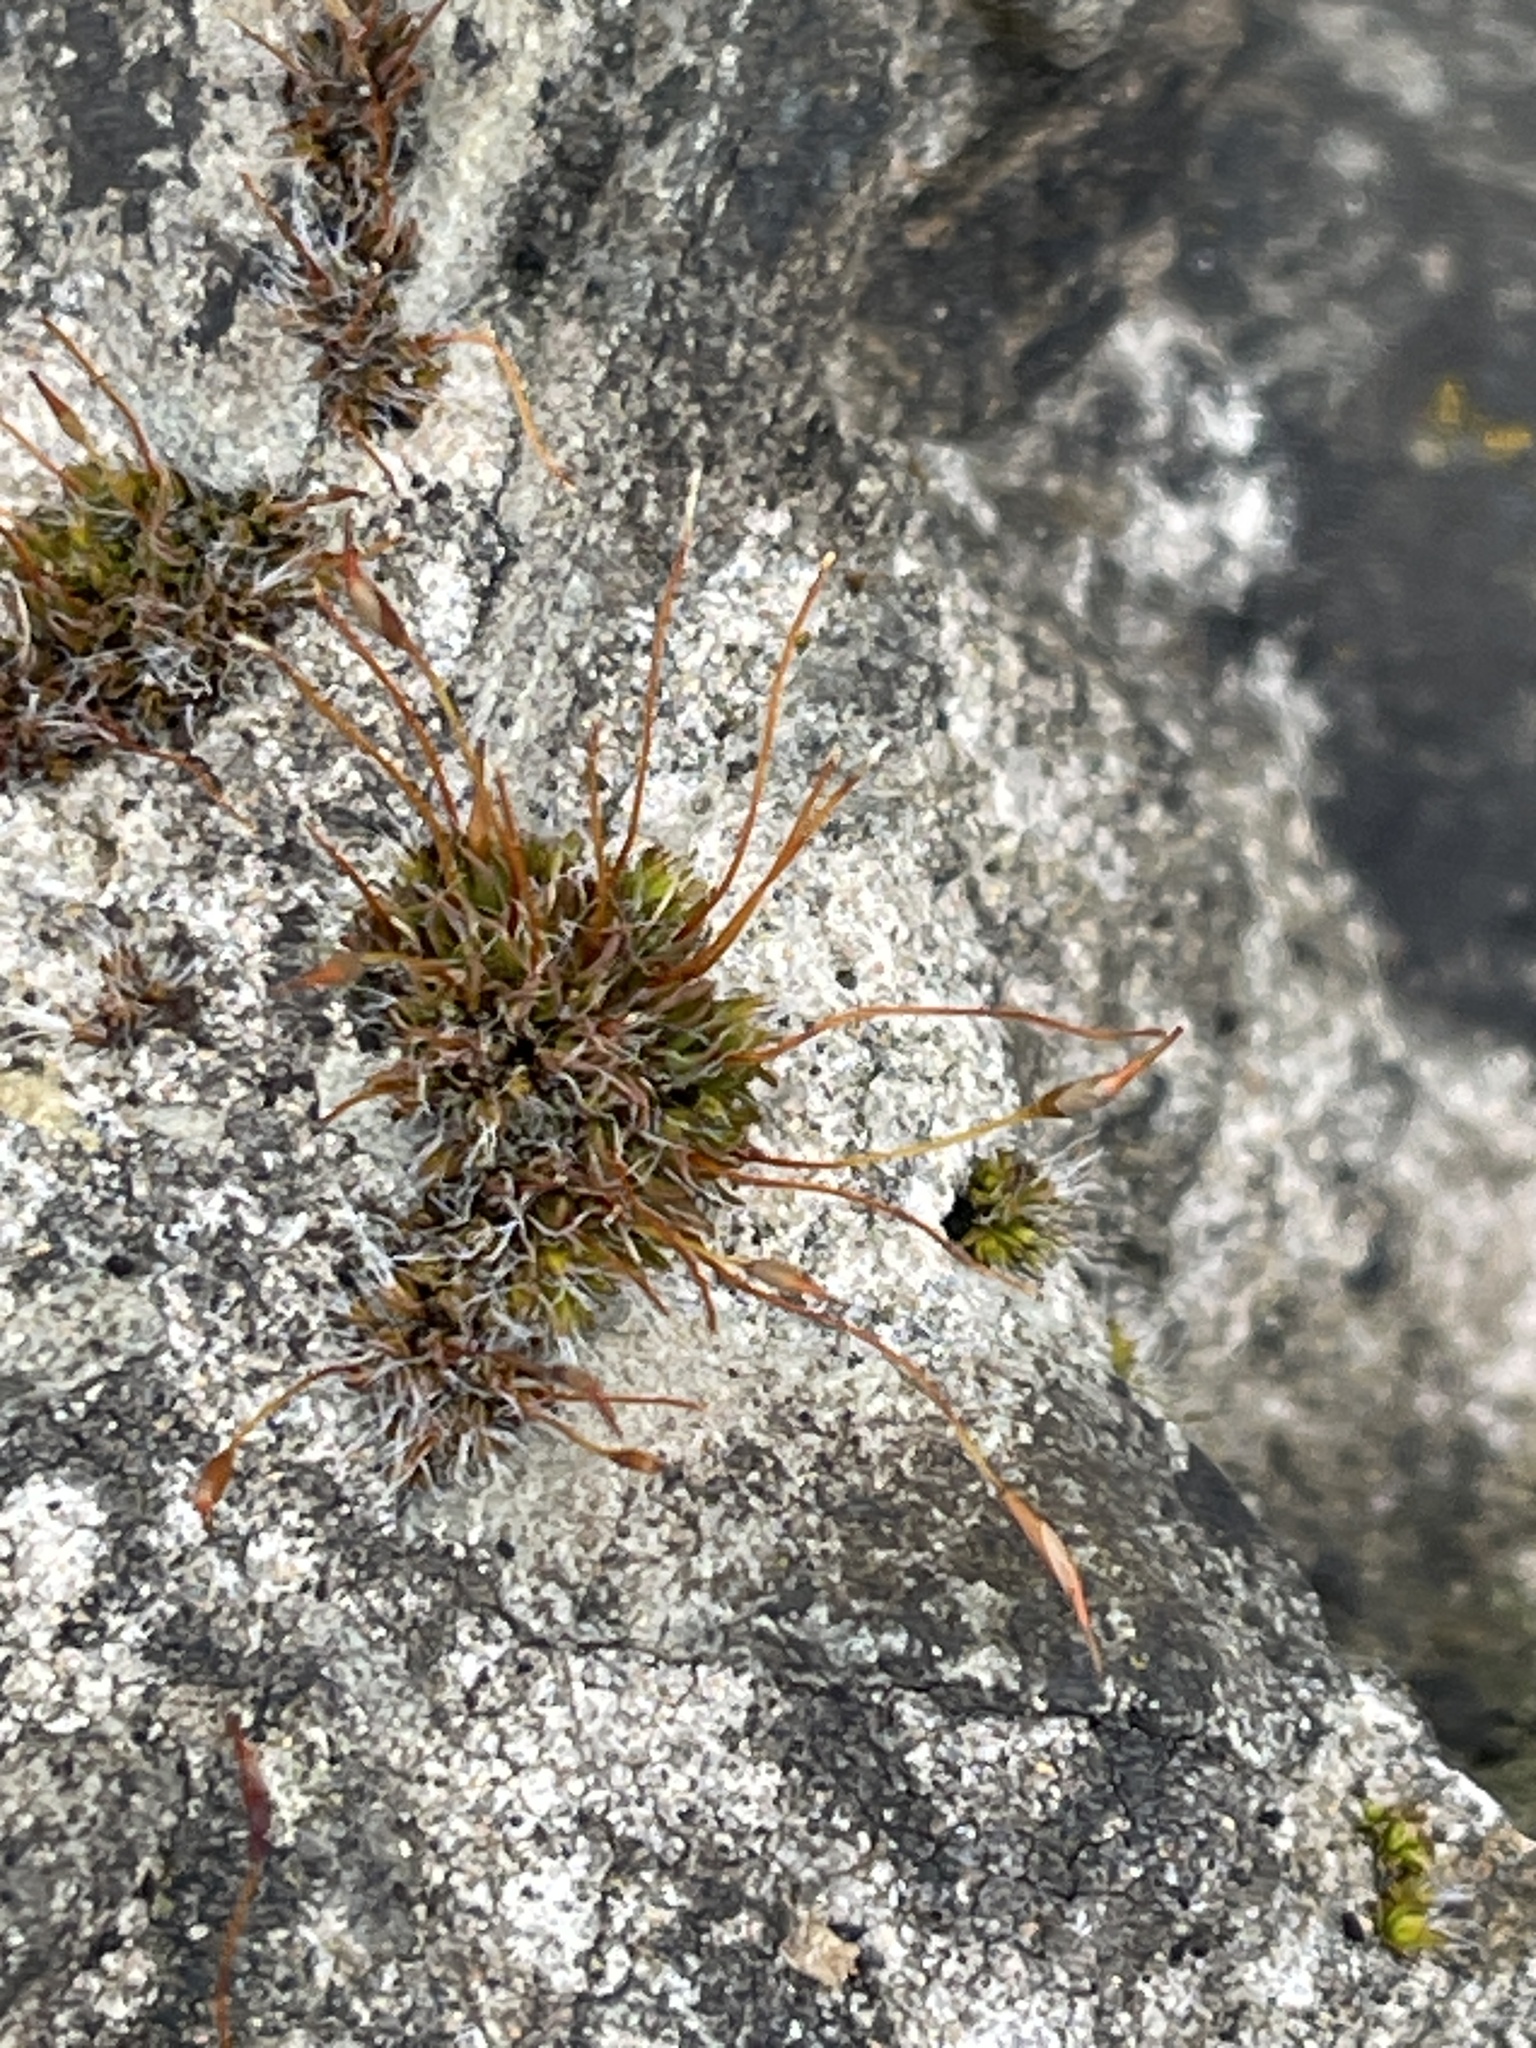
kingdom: Plantae
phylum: Bryophyta
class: Bryopsida
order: Pottiales
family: Pottiaceae
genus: Tortula
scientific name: Tortula muralis
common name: Wall screw-moss
